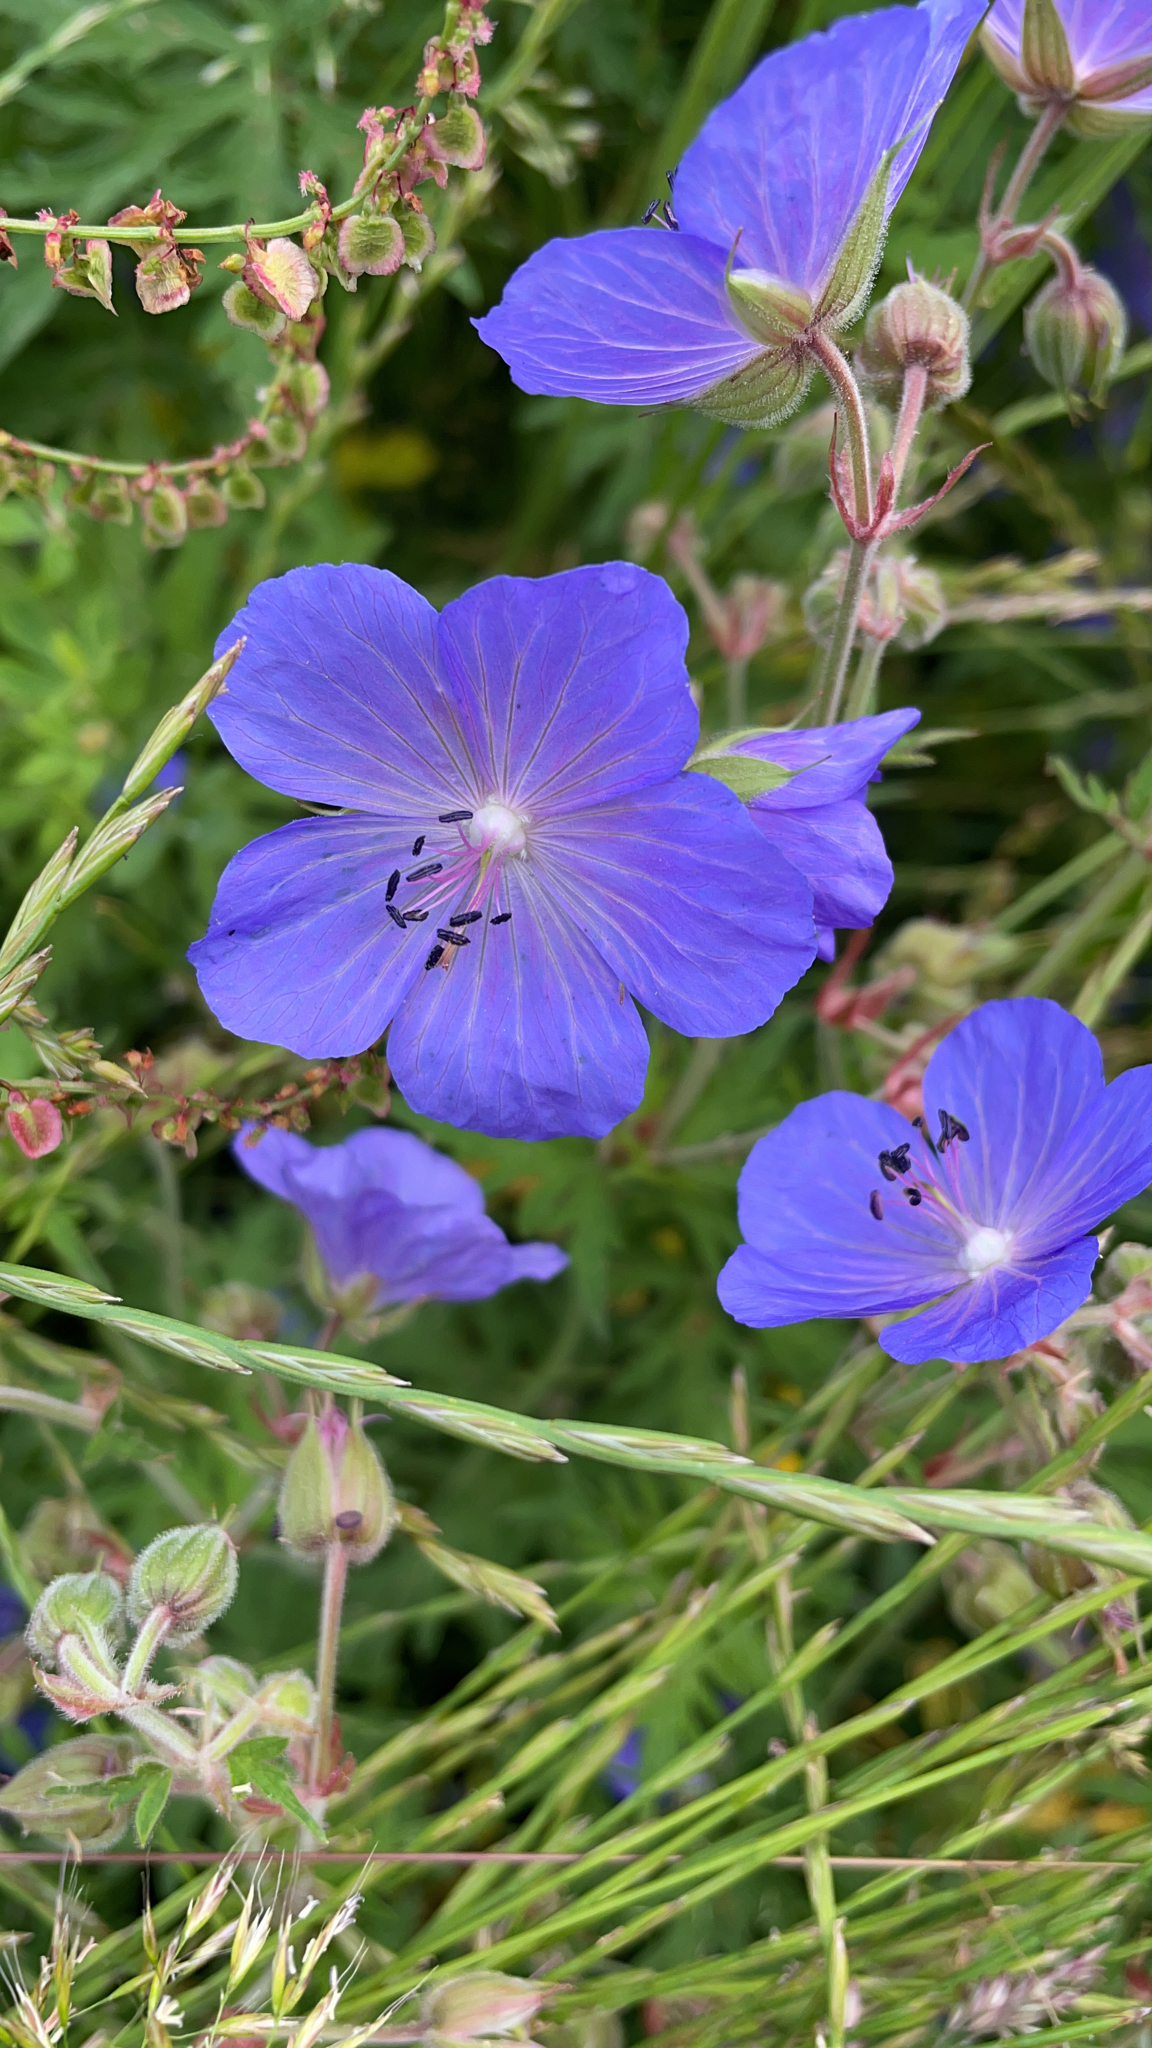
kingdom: Plantae
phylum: Tracheophyta
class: Magnoliopsida
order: Geraniales
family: Geraniaceae
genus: Geranium
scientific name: Geranium pratense
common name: Meadow crane's-bill
